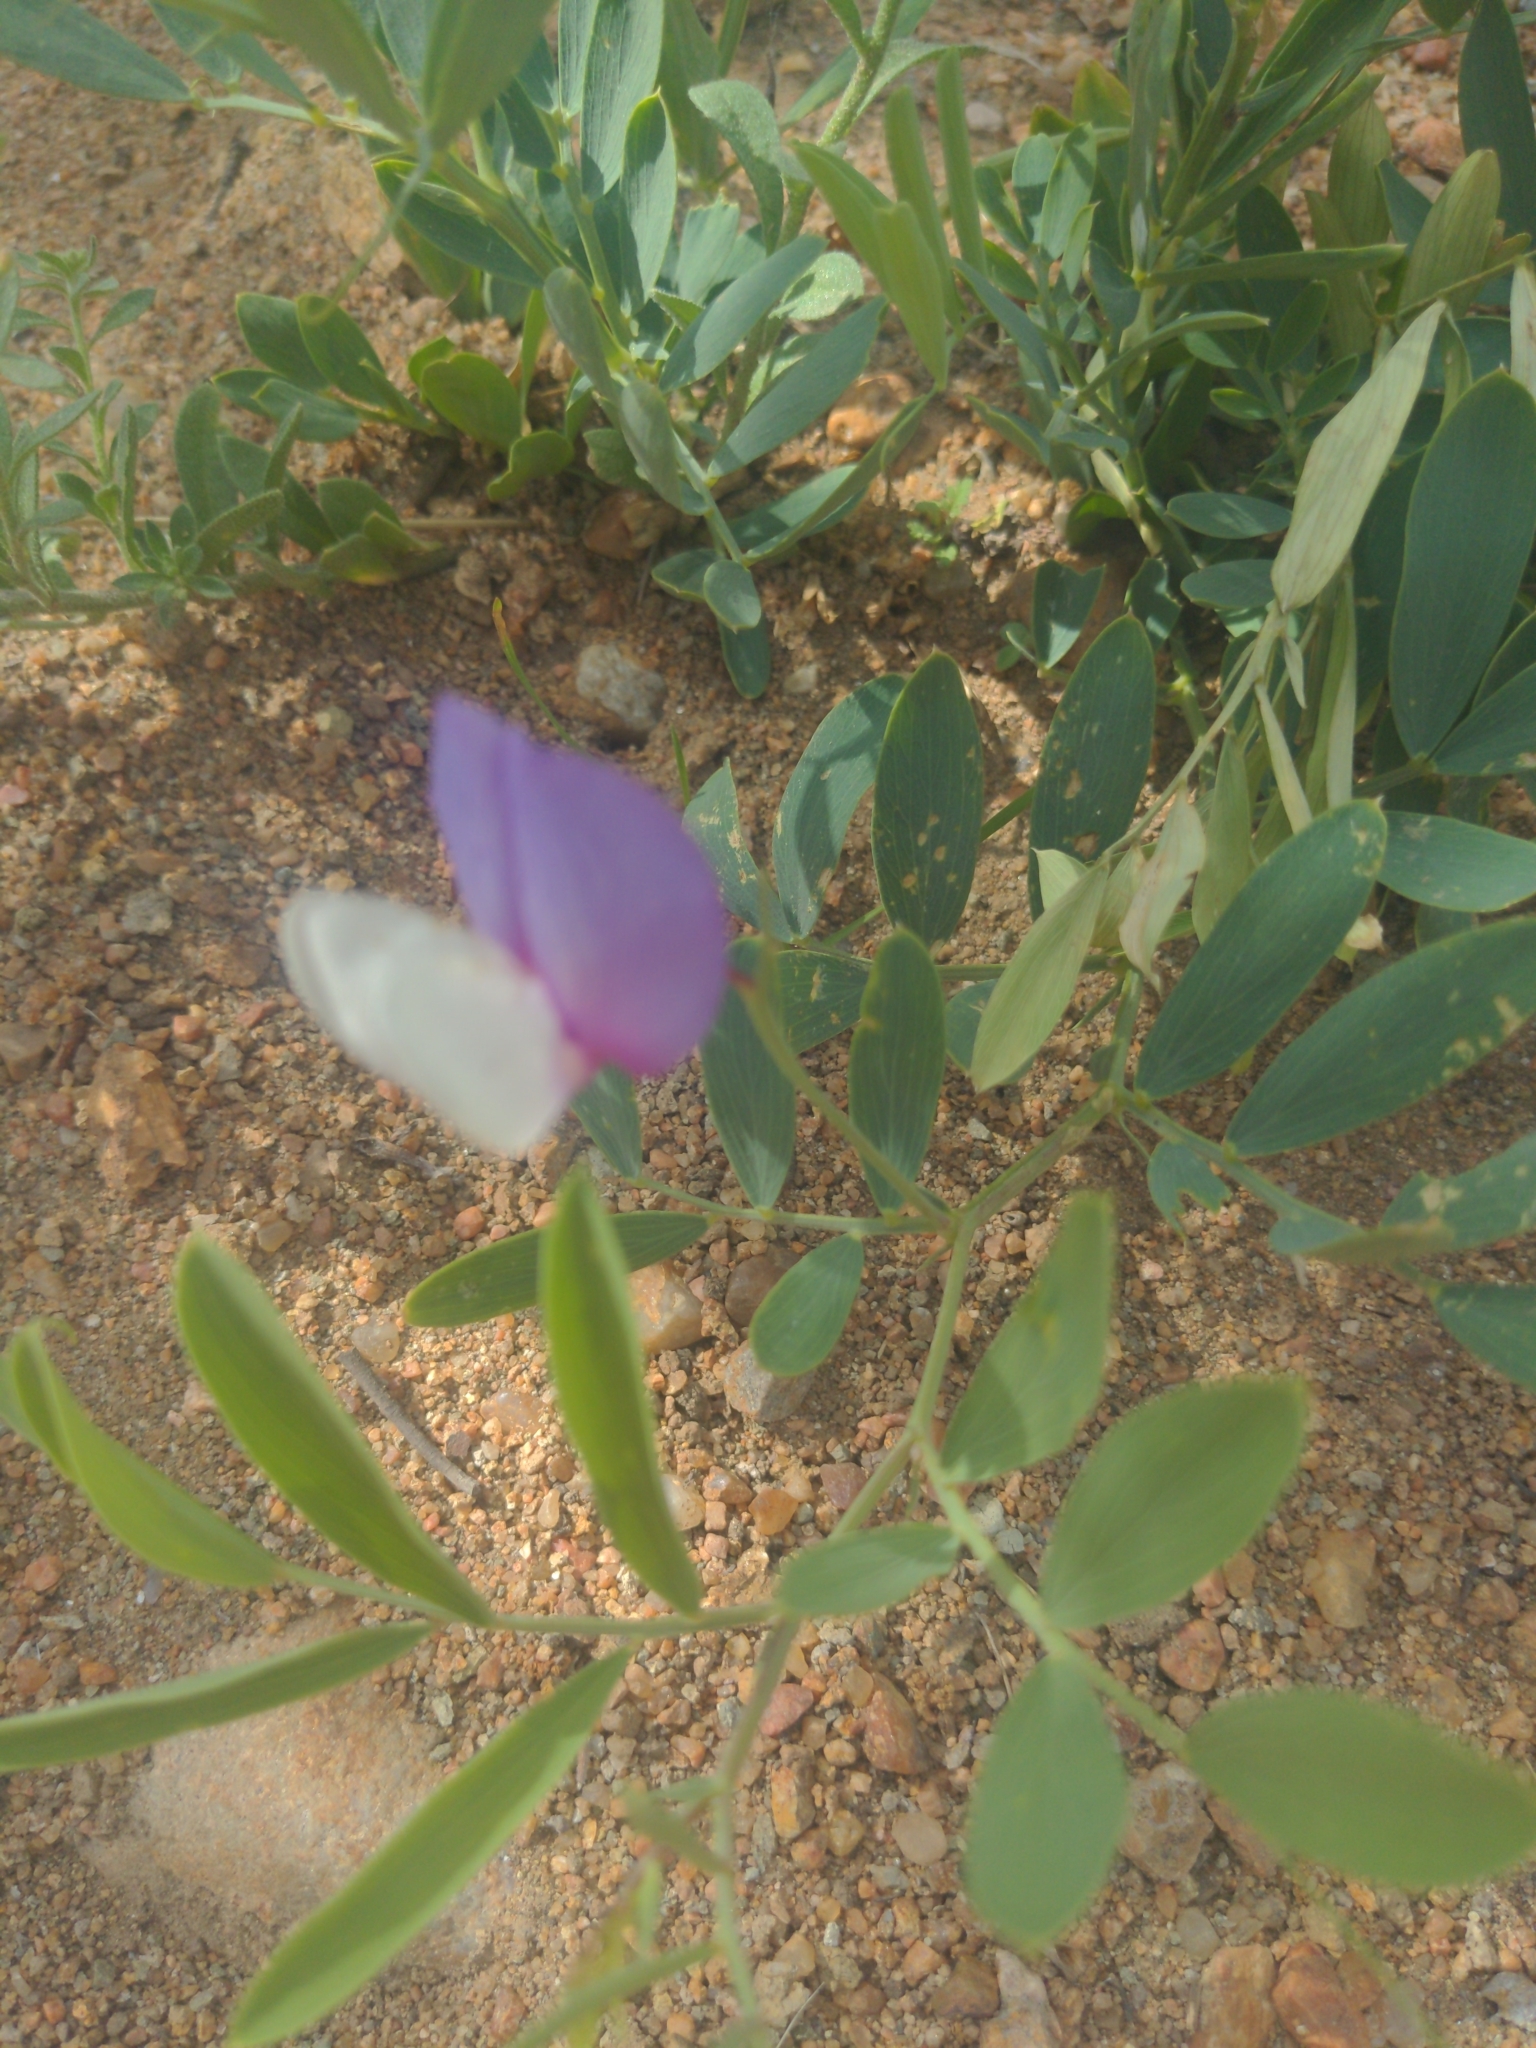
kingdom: Plantae
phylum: Tracheophyta
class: Magnoliopsida
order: Fabales
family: Fabaceae
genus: Lathyrus
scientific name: Lathyrus eucosmus
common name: Semmly vetchling
